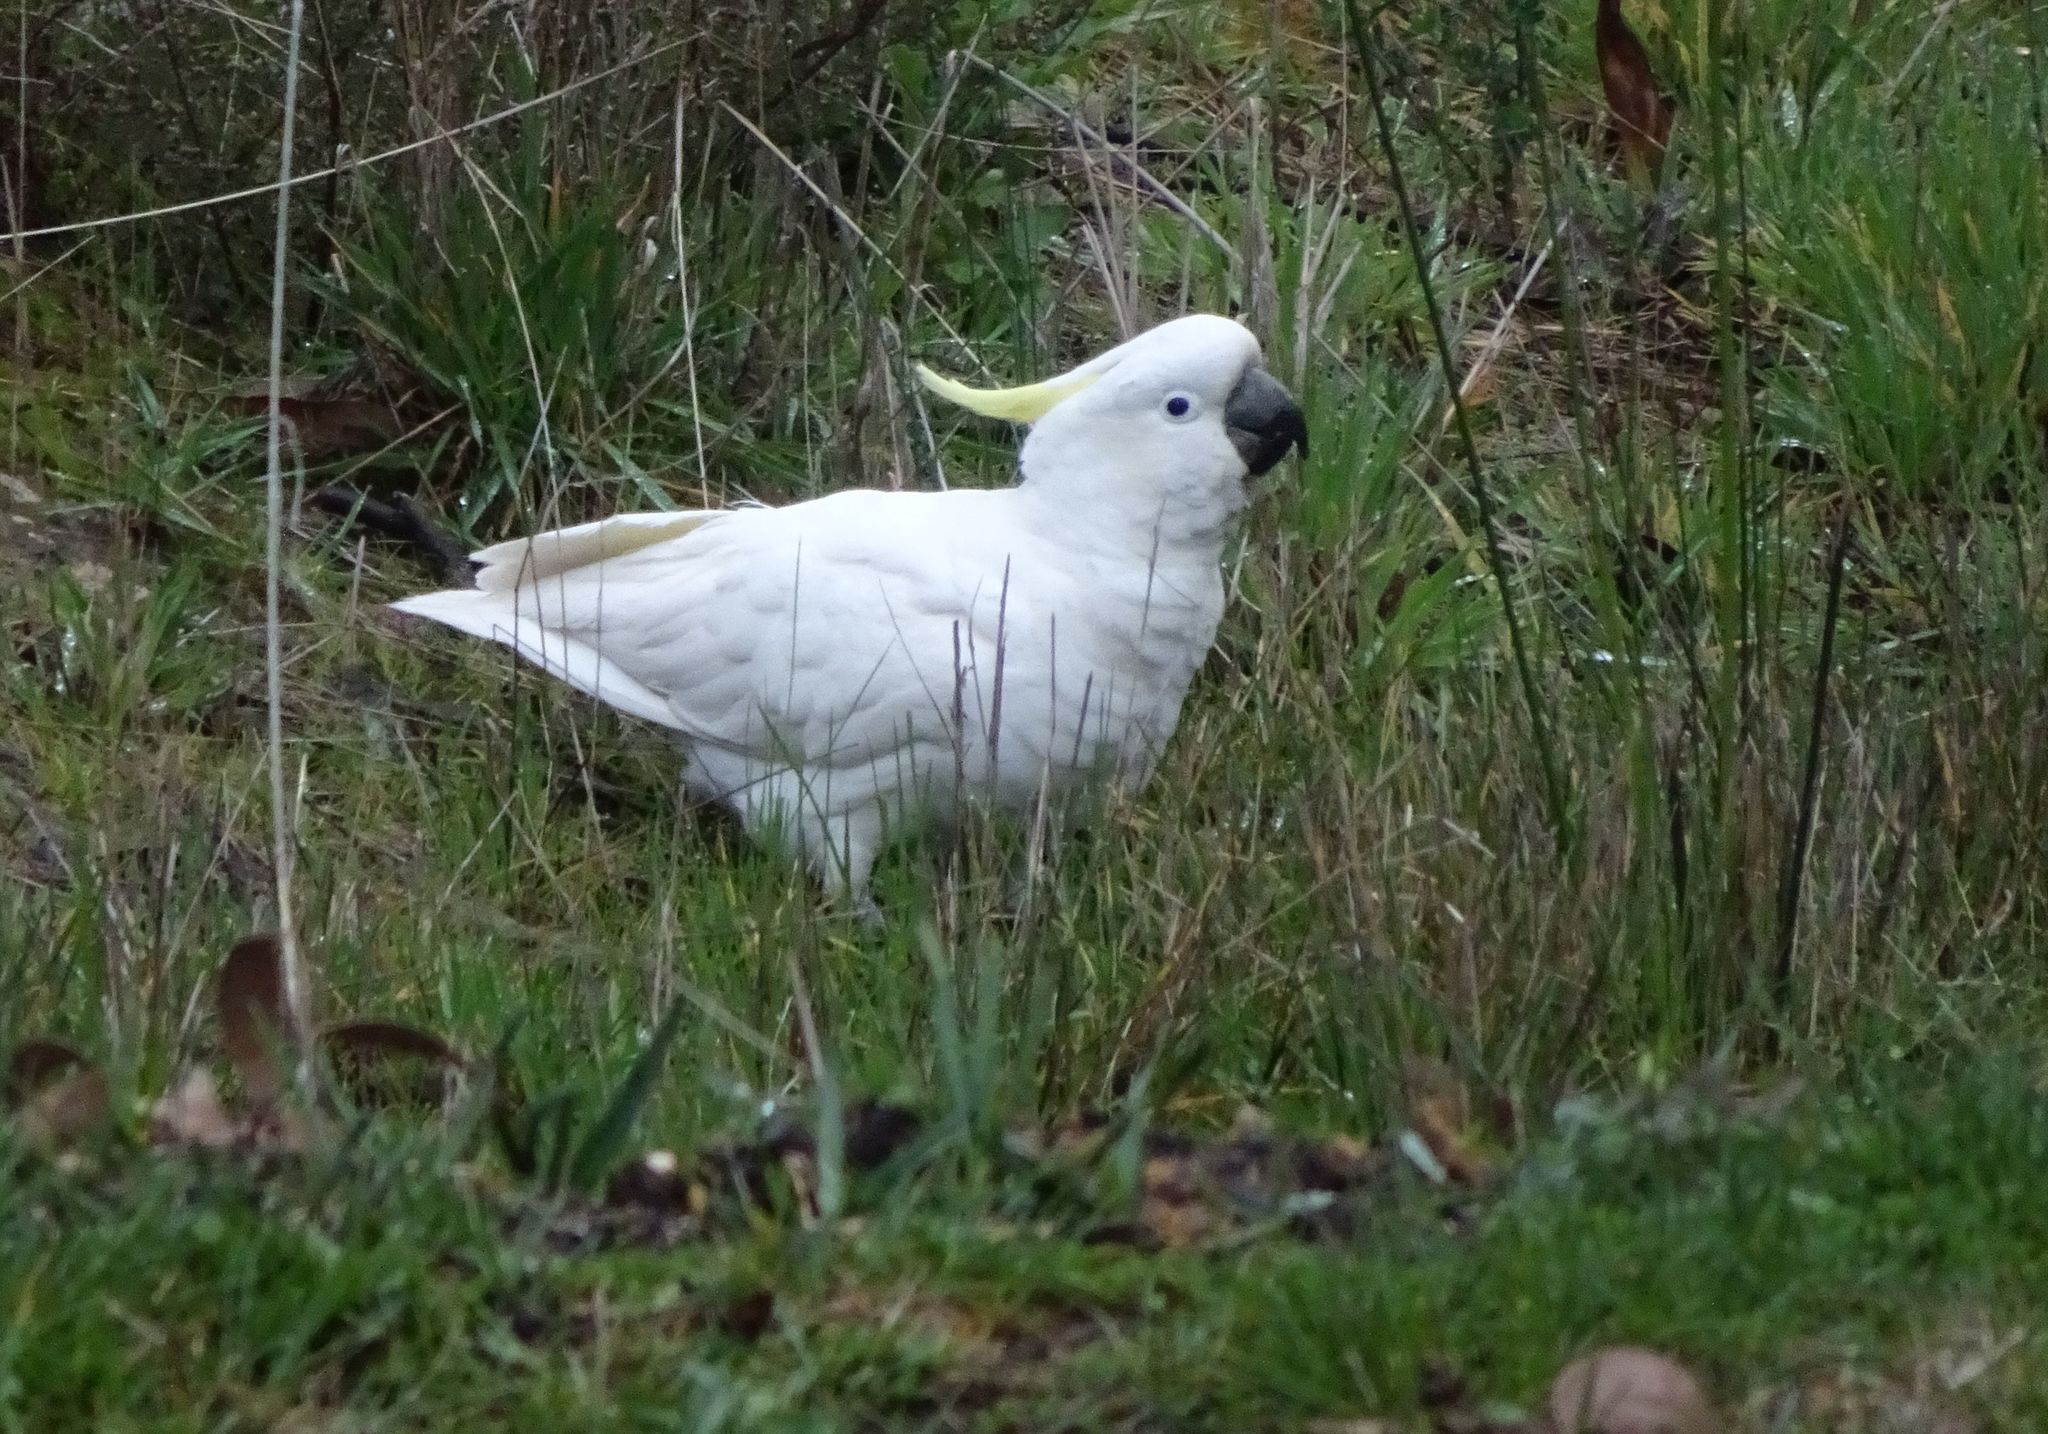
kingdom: Animalia
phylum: Chordata
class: Aves
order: Psittaciformes
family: Psittacidae
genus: Cacatua
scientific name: Cacatua galerita
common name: Sulphur-crested cockatoo
